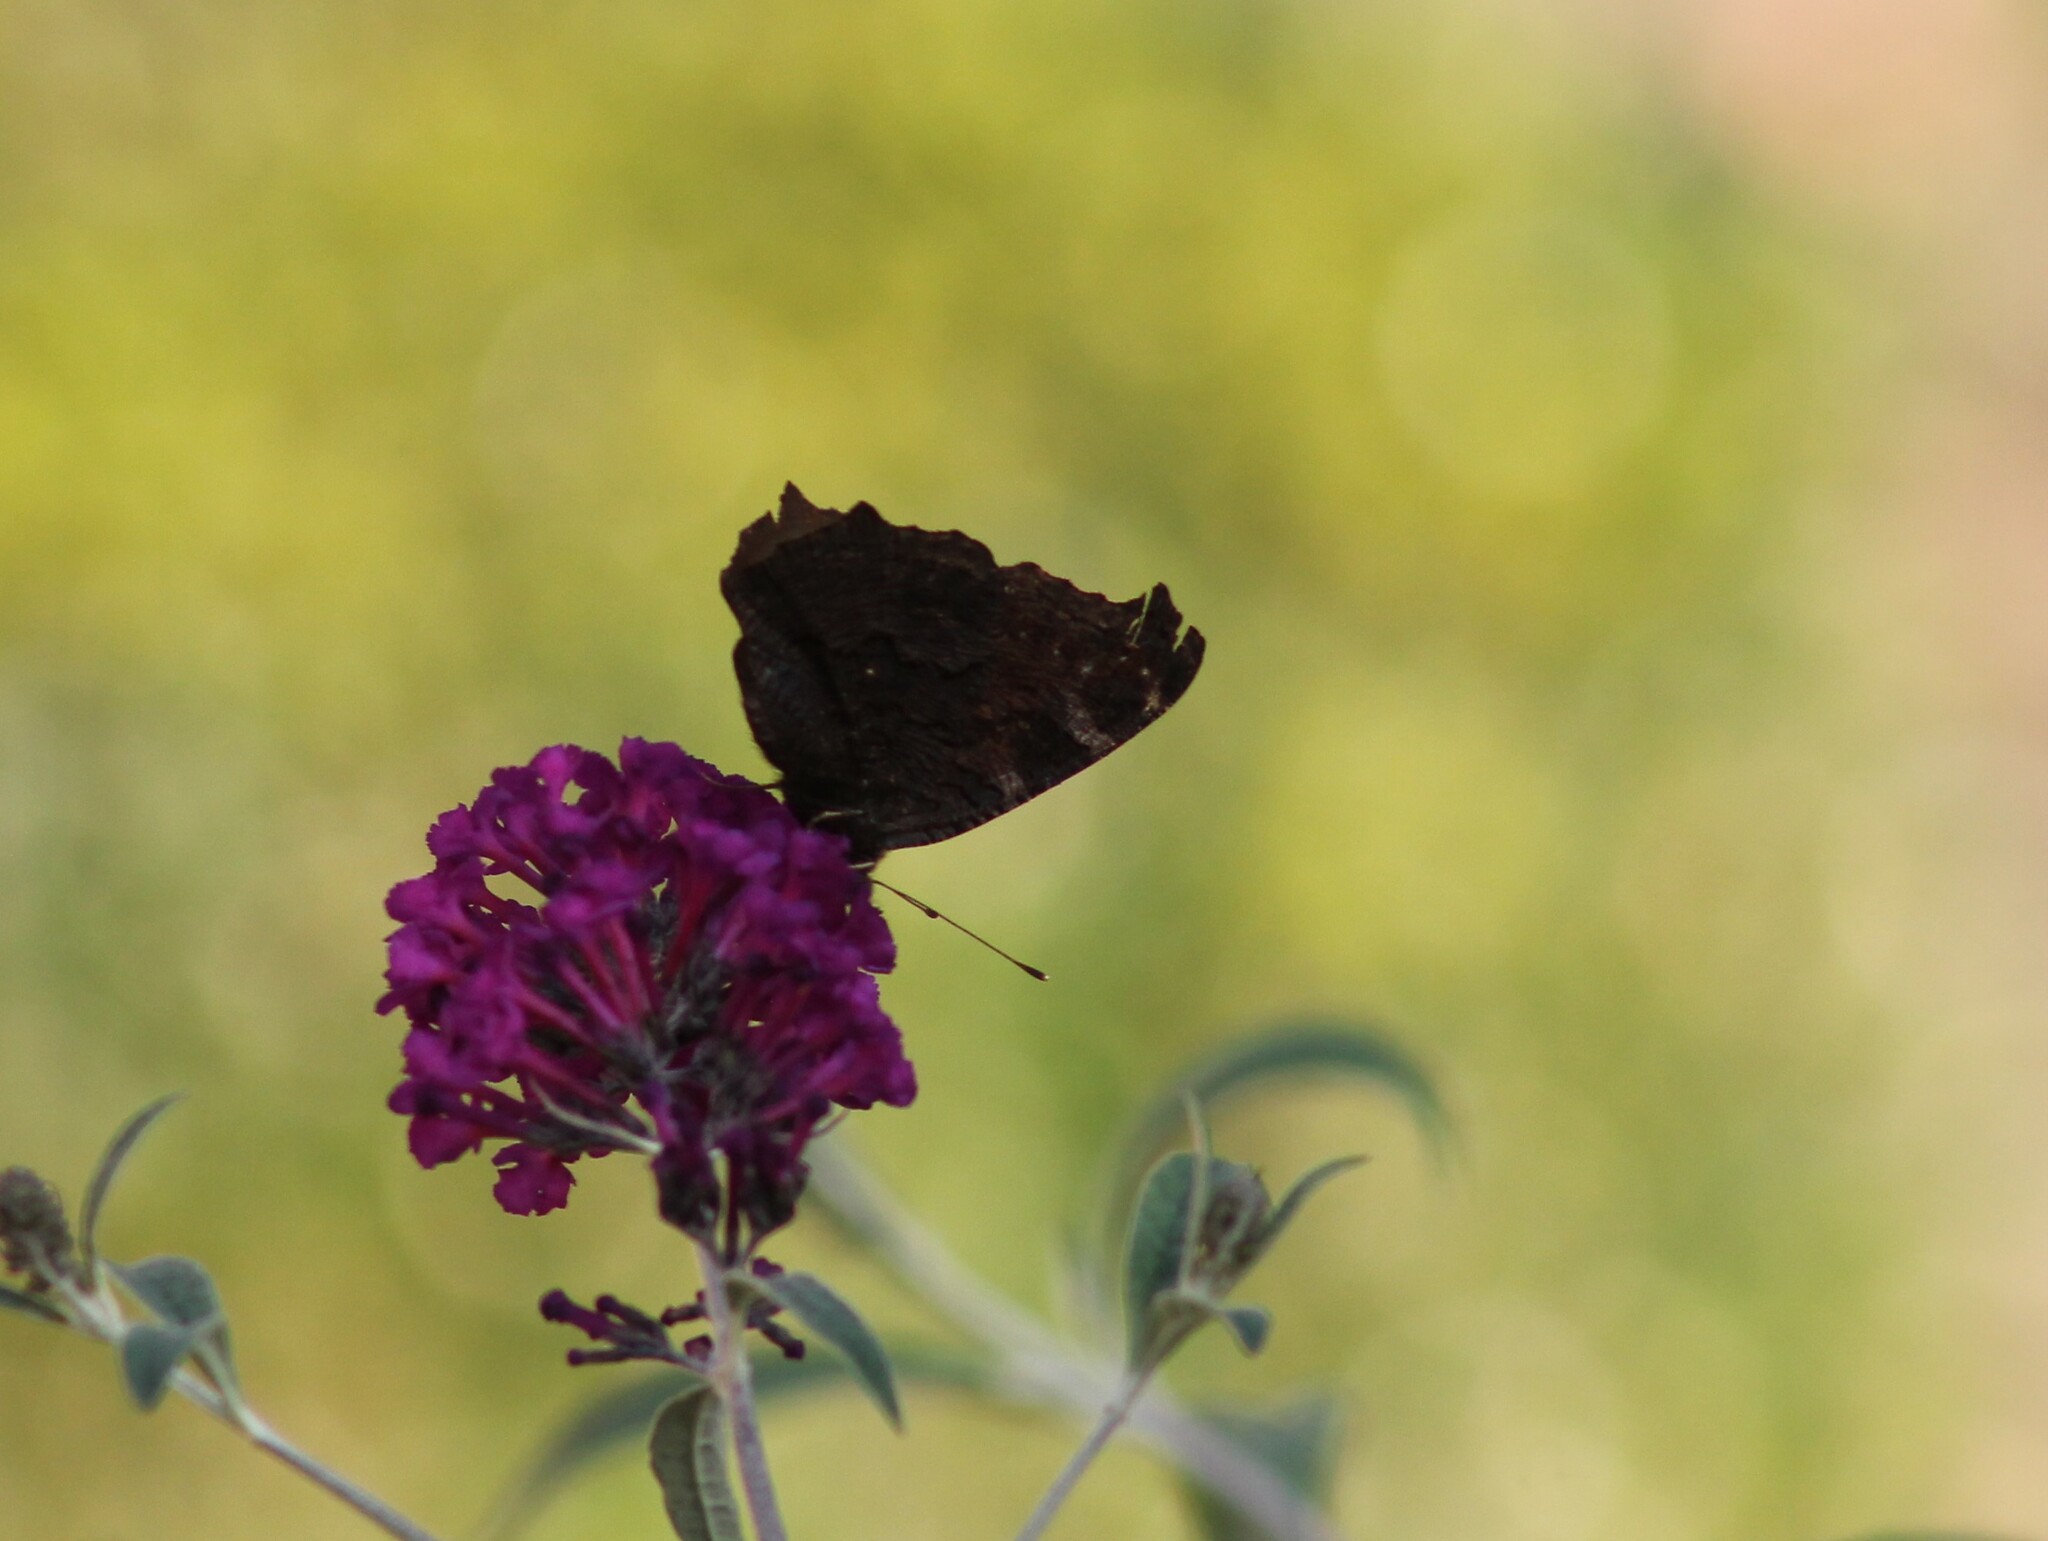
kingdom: Animalia
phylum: Arthropoda
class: Insecta
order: Lepidoptera
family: Nymphalidae
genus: Aglais
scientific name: Aglais io
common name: Peacock
